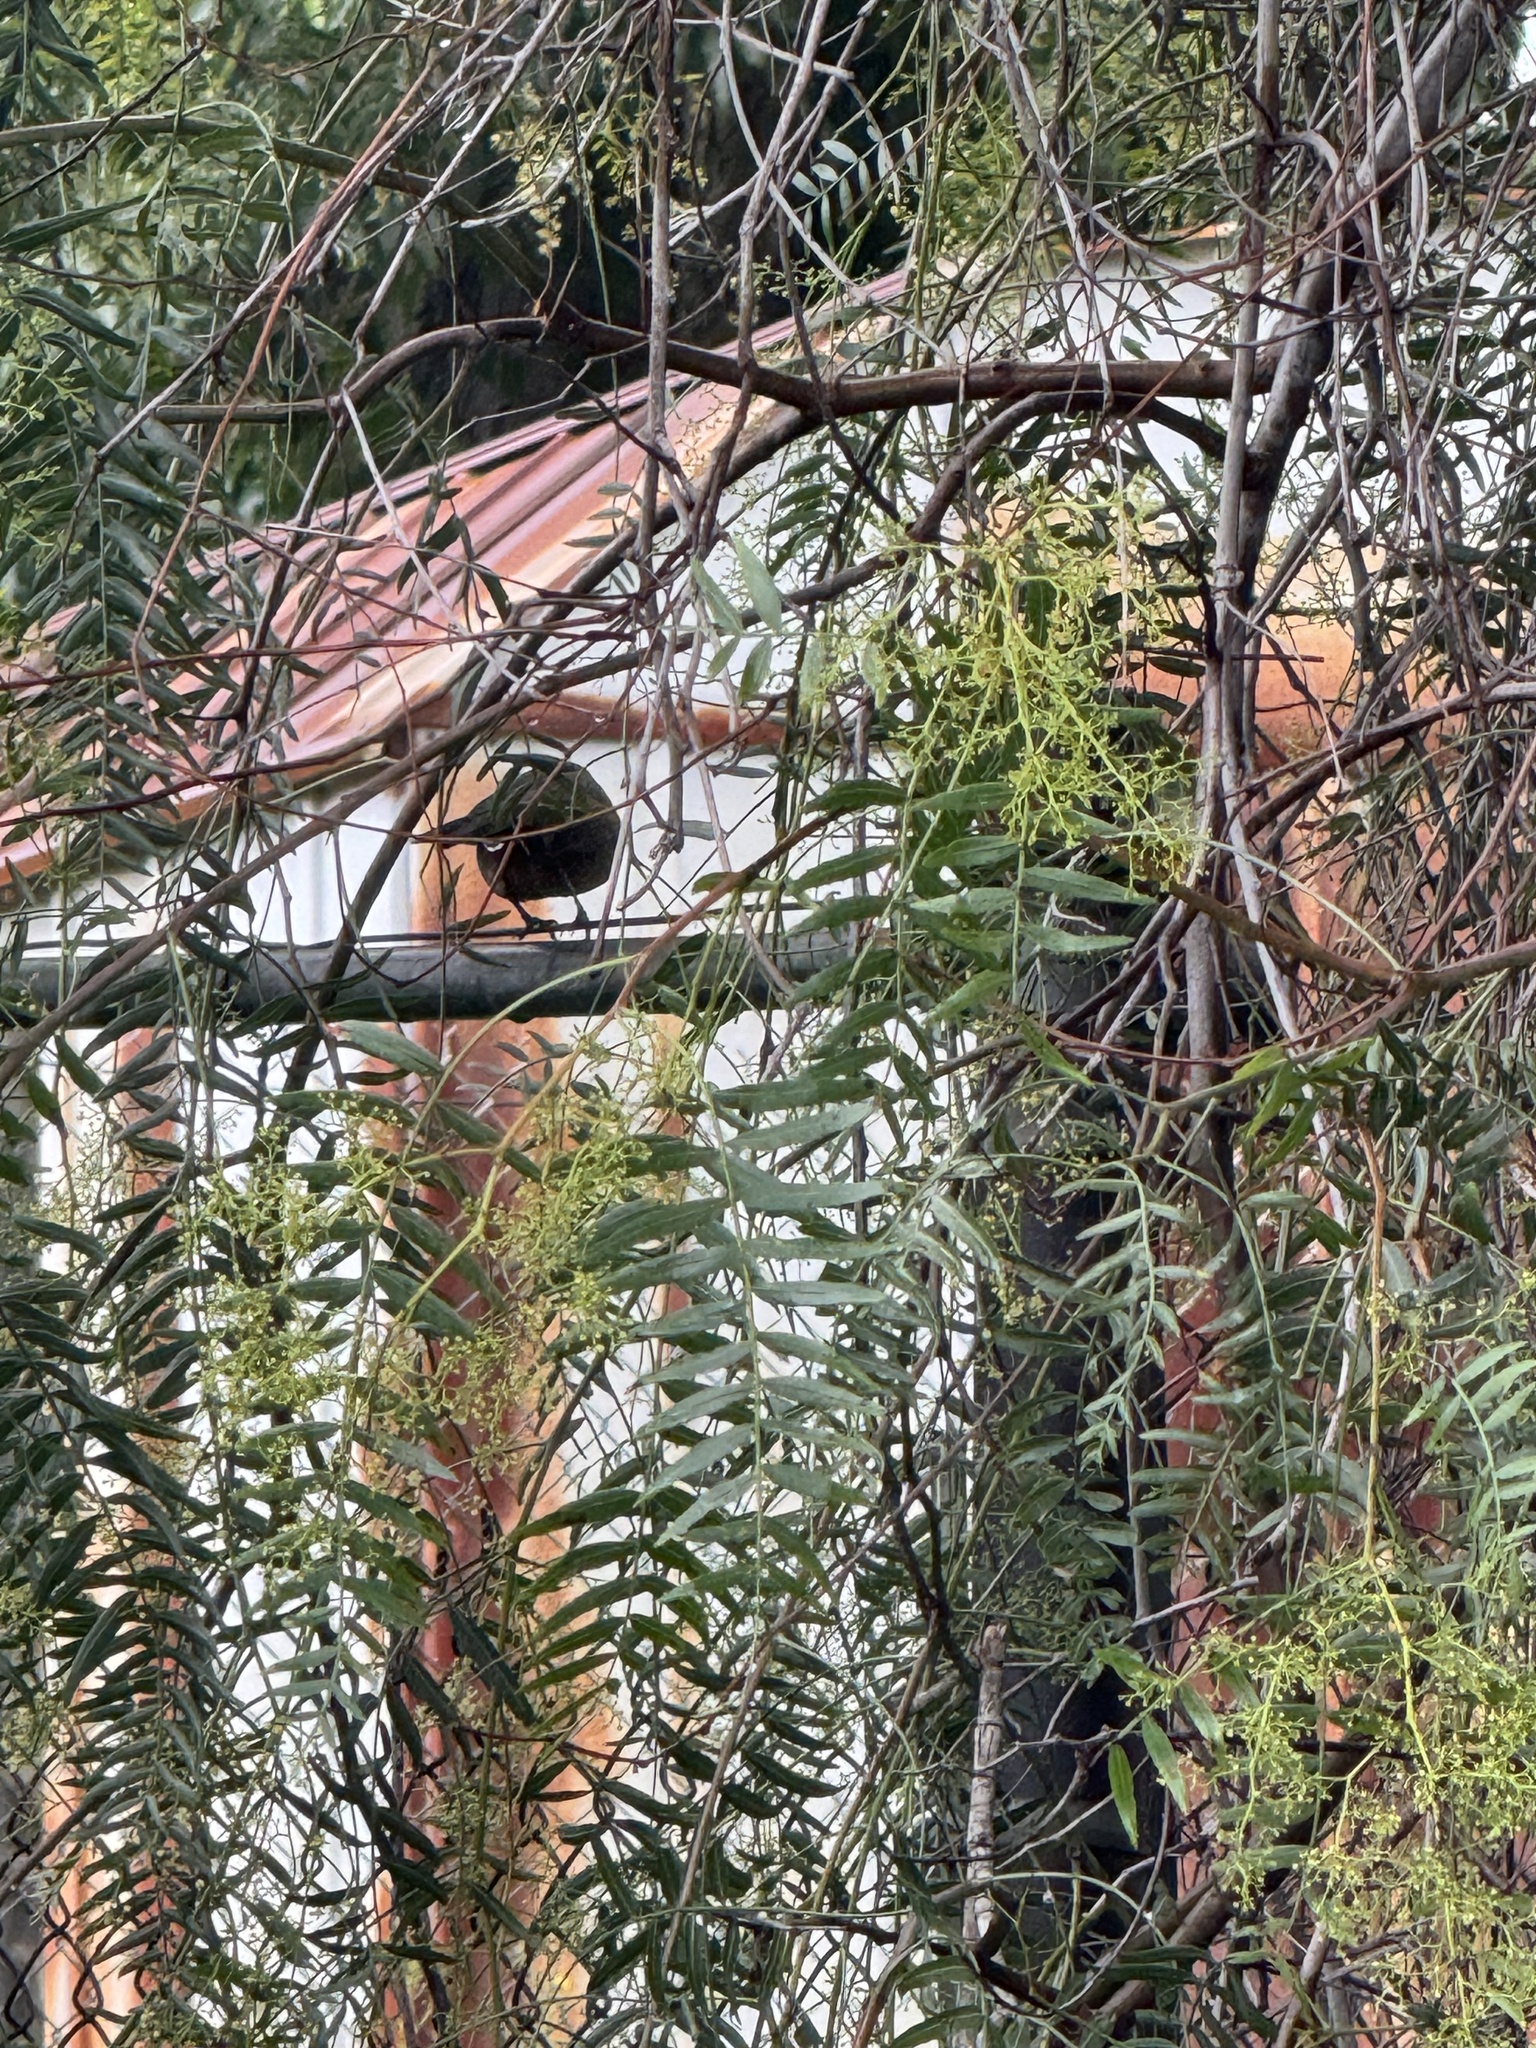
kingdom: Animalia
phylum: Chordata
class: Aves
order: Passeriformes
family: Passerellidae
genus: Melozone
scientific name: Melozone crissalis
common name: California towhee
